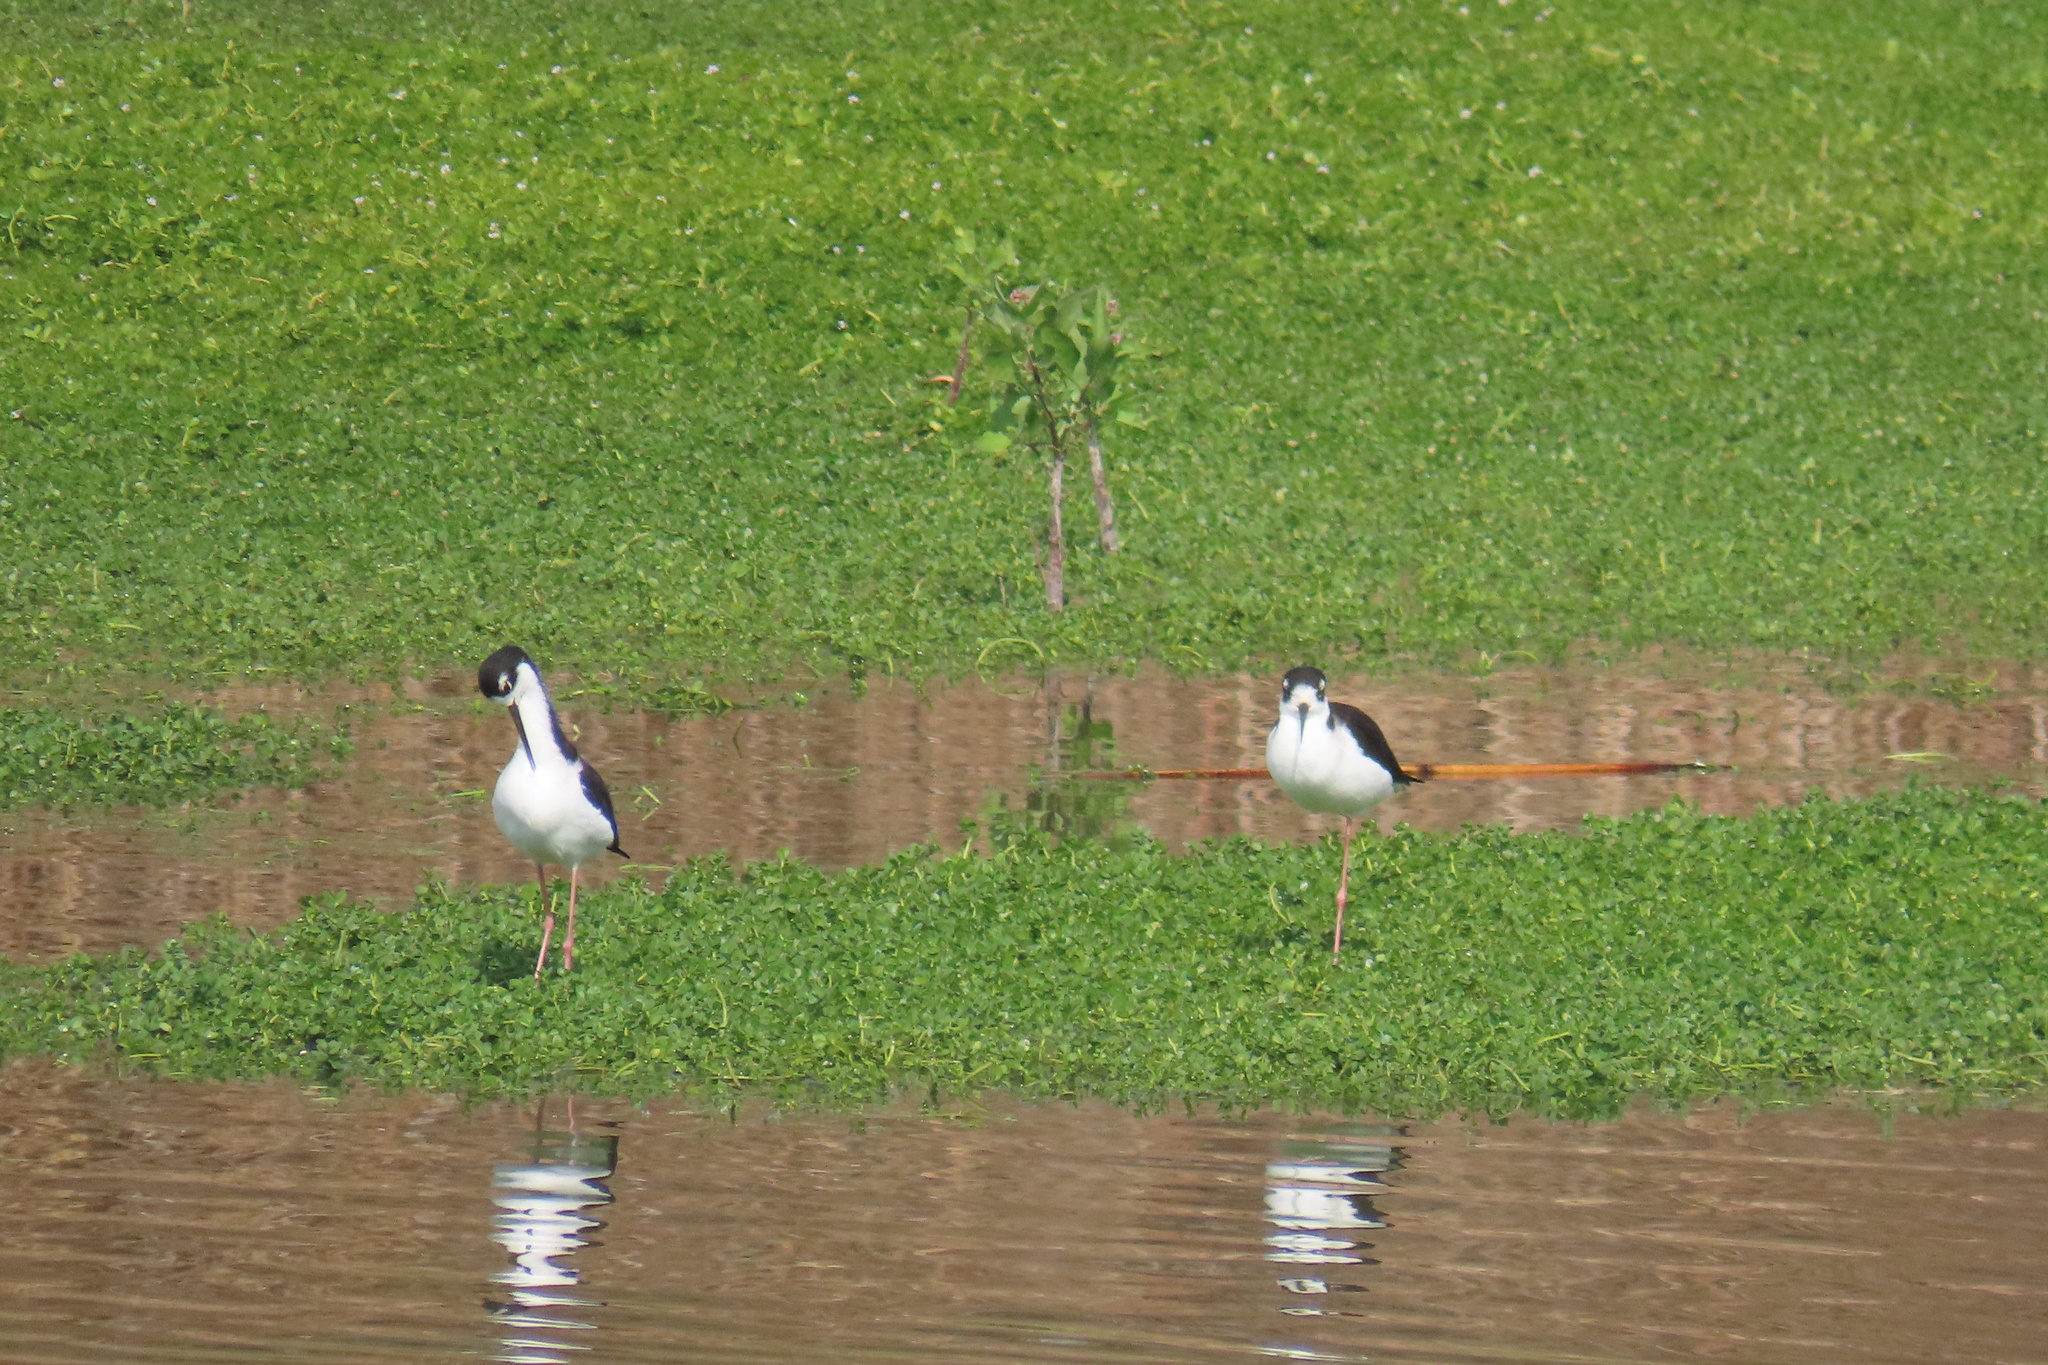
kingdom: Animalia
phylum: Chordata
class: Aves
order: Charadriiformes
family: Recurvirostridae
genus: Himantopus
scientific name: Himantopus mexicanus
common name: Black-necked stilt
